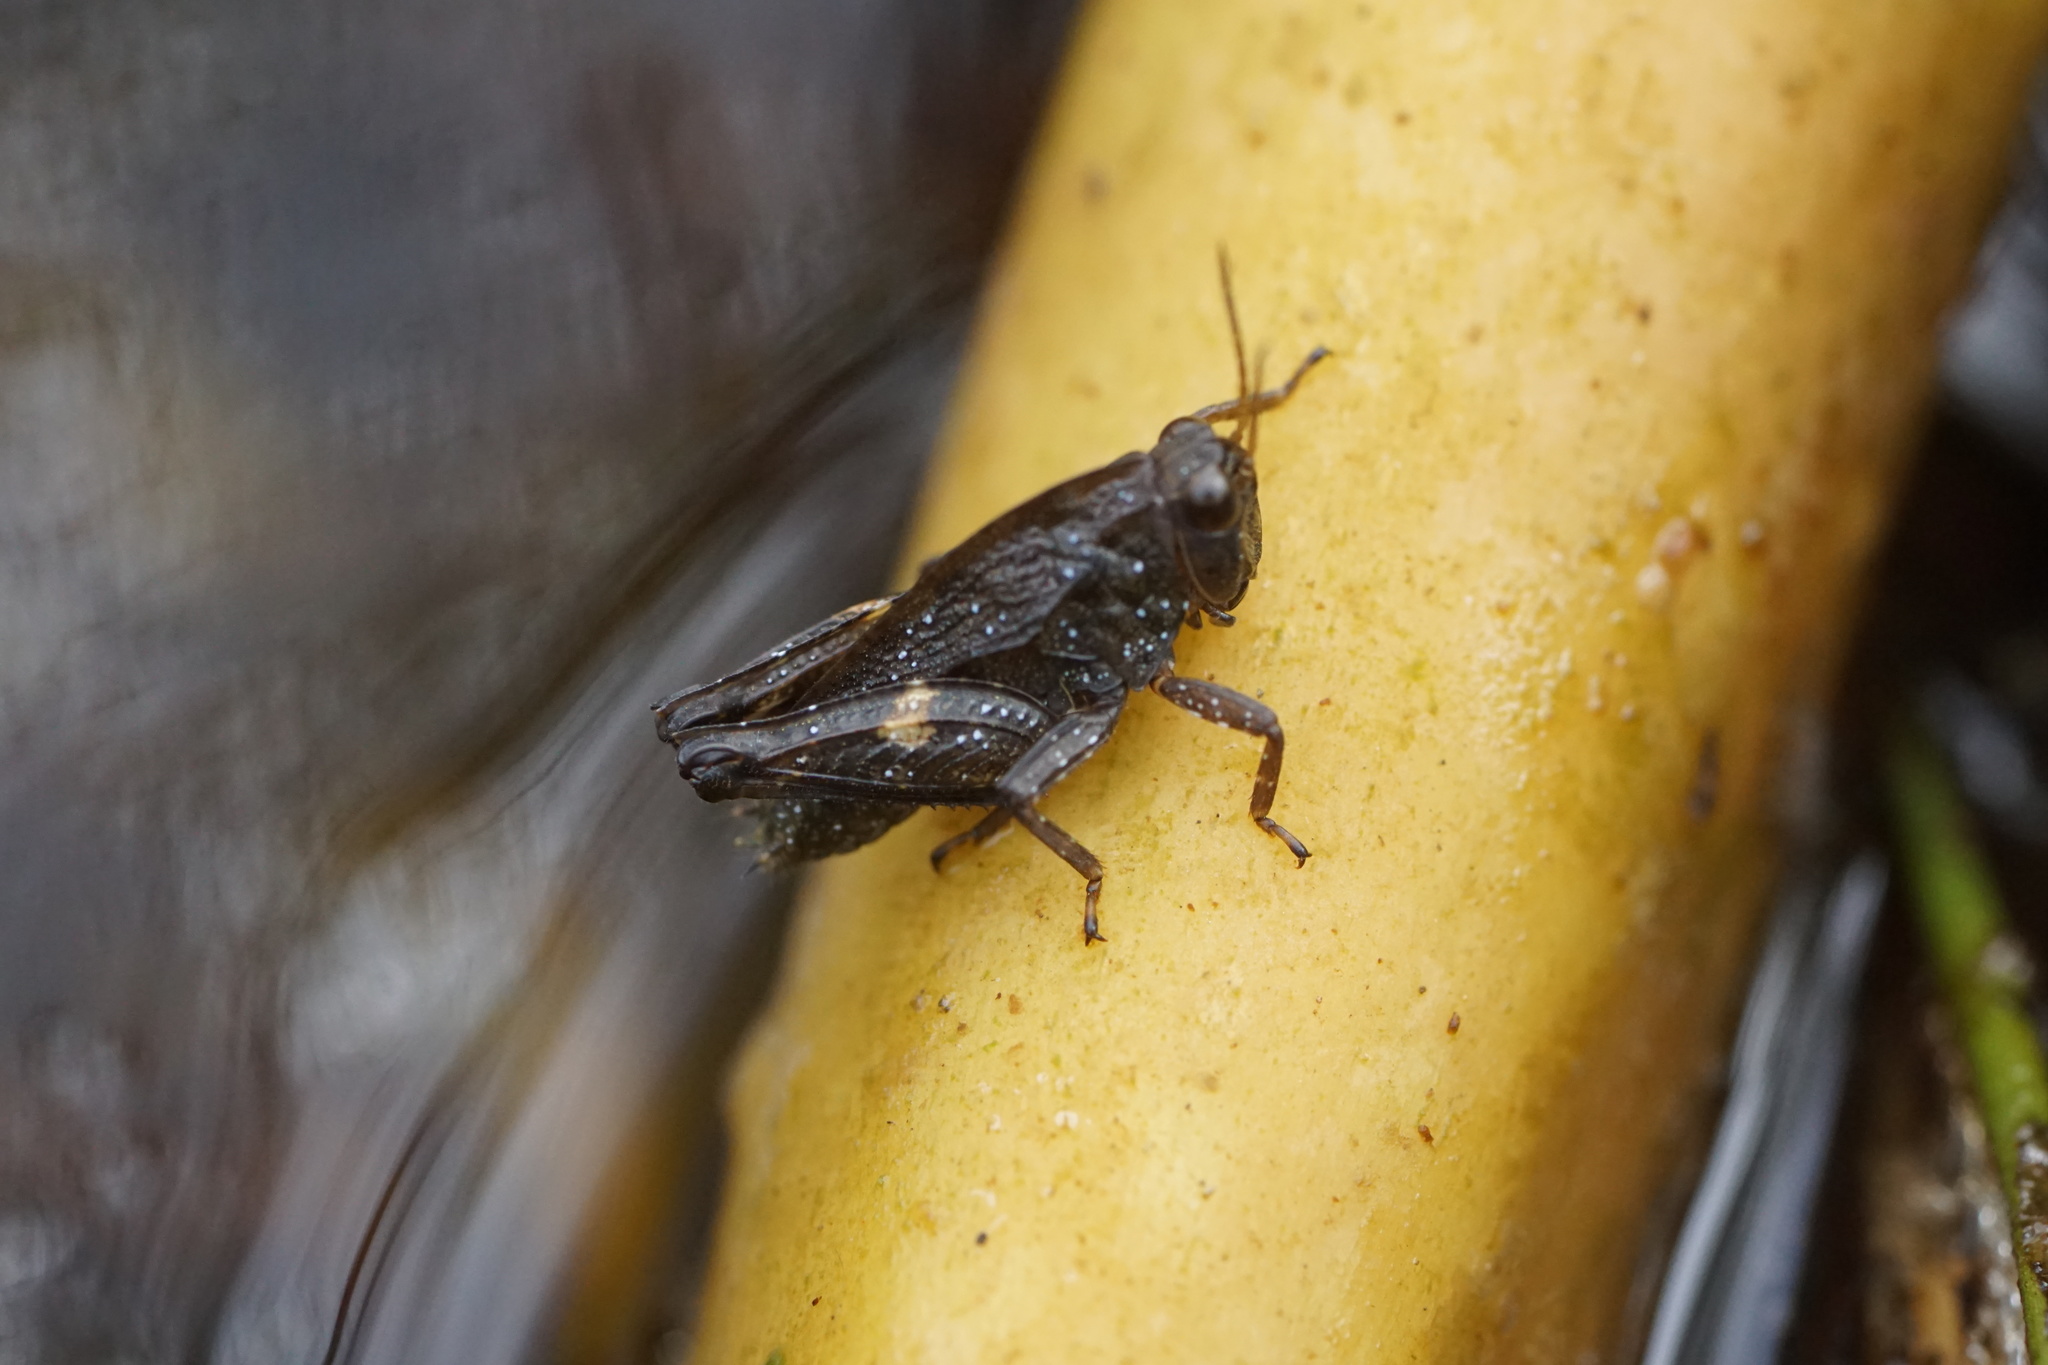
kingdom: Animalia
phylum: Arthropoda
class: Insecta
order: Orthoptera
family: Tetrigidae
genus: Tettigidea
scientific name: Tettigidea laterale
